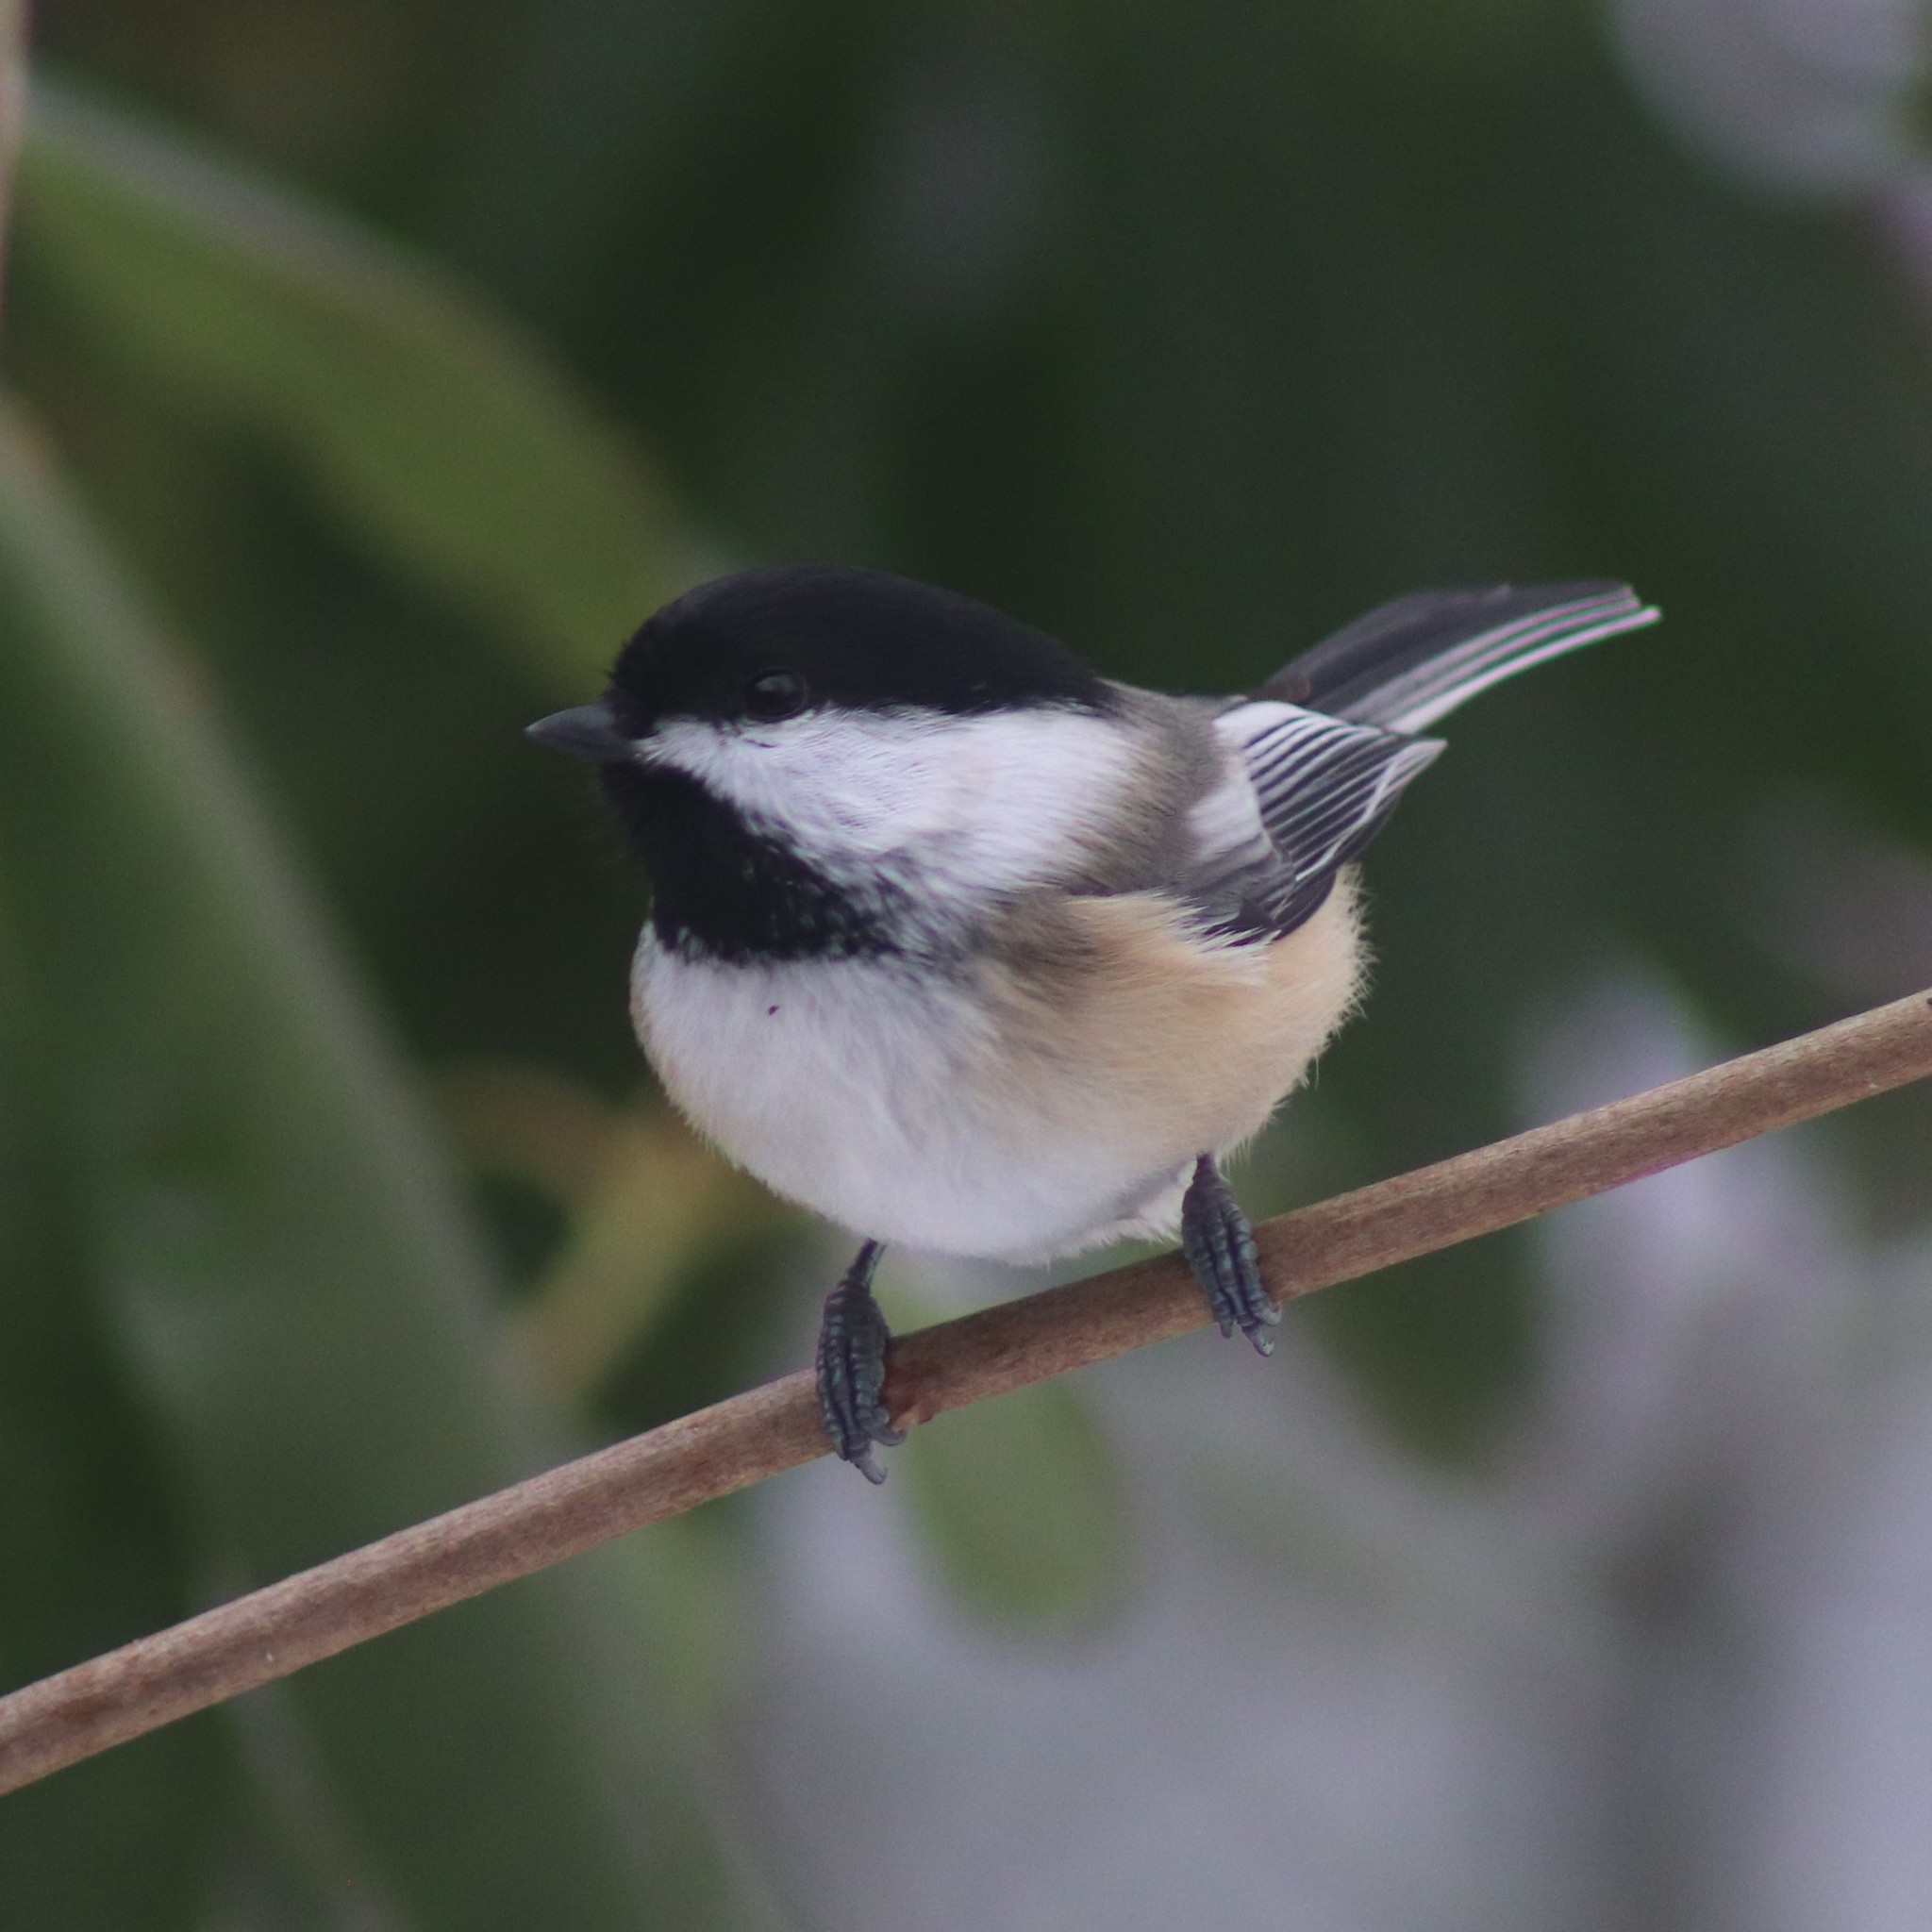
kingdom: Animalia
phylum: Chordata
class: Aves
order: Passeriformes
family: Paridae
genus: Poecile
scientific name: Poecile atricapillus
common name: Black-capped chickadee
